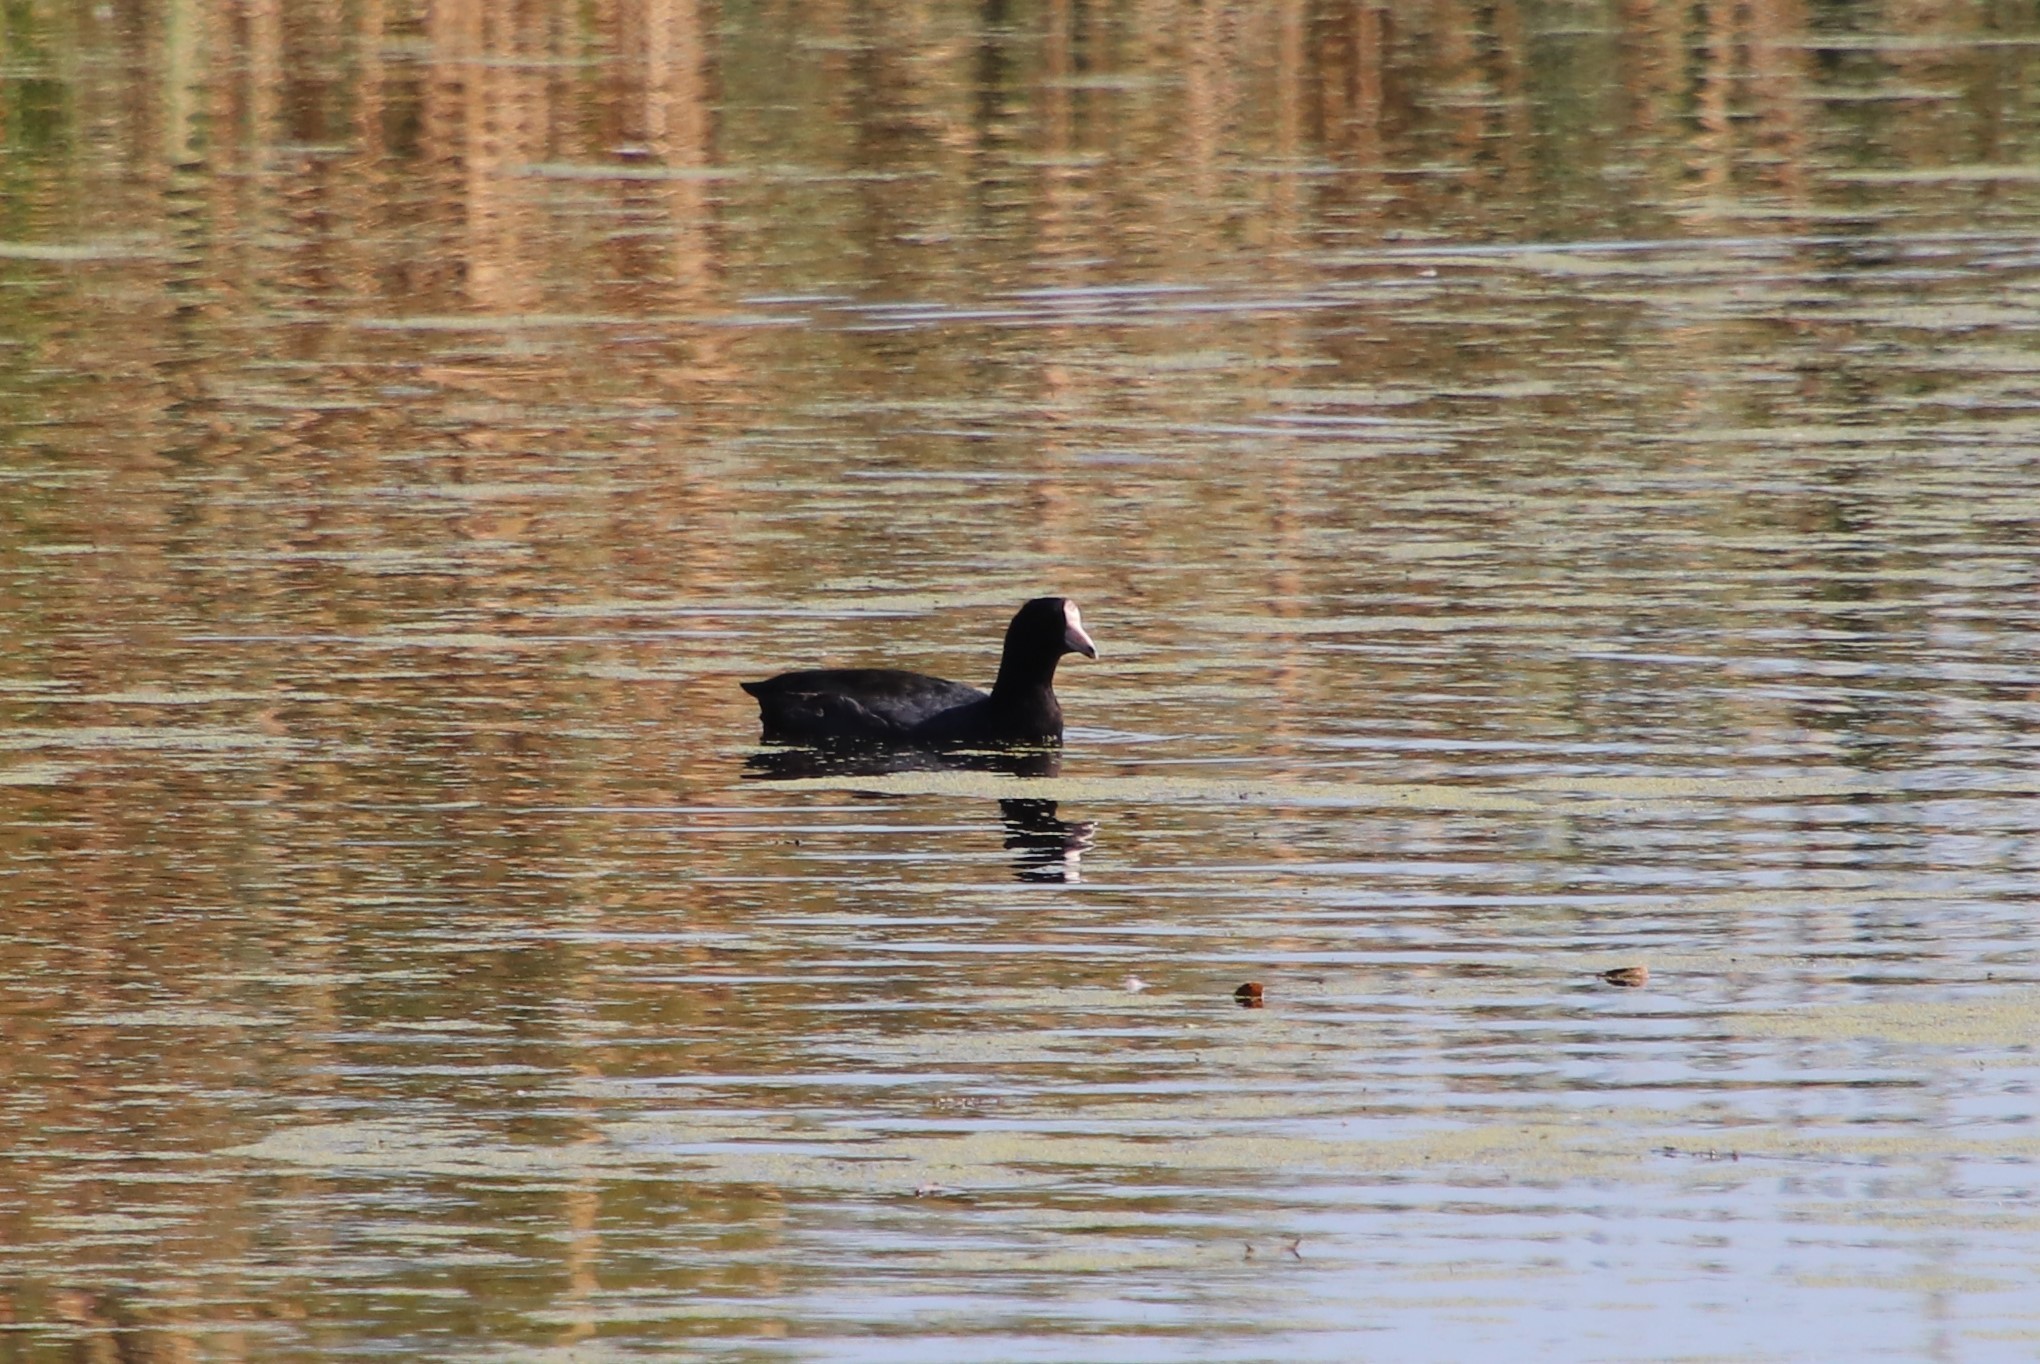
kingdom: Animalia
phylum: Chordata
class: Aves
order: Gruiformes
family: Rallidae
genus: Fulica
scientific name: Fulica americana
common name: American coot
